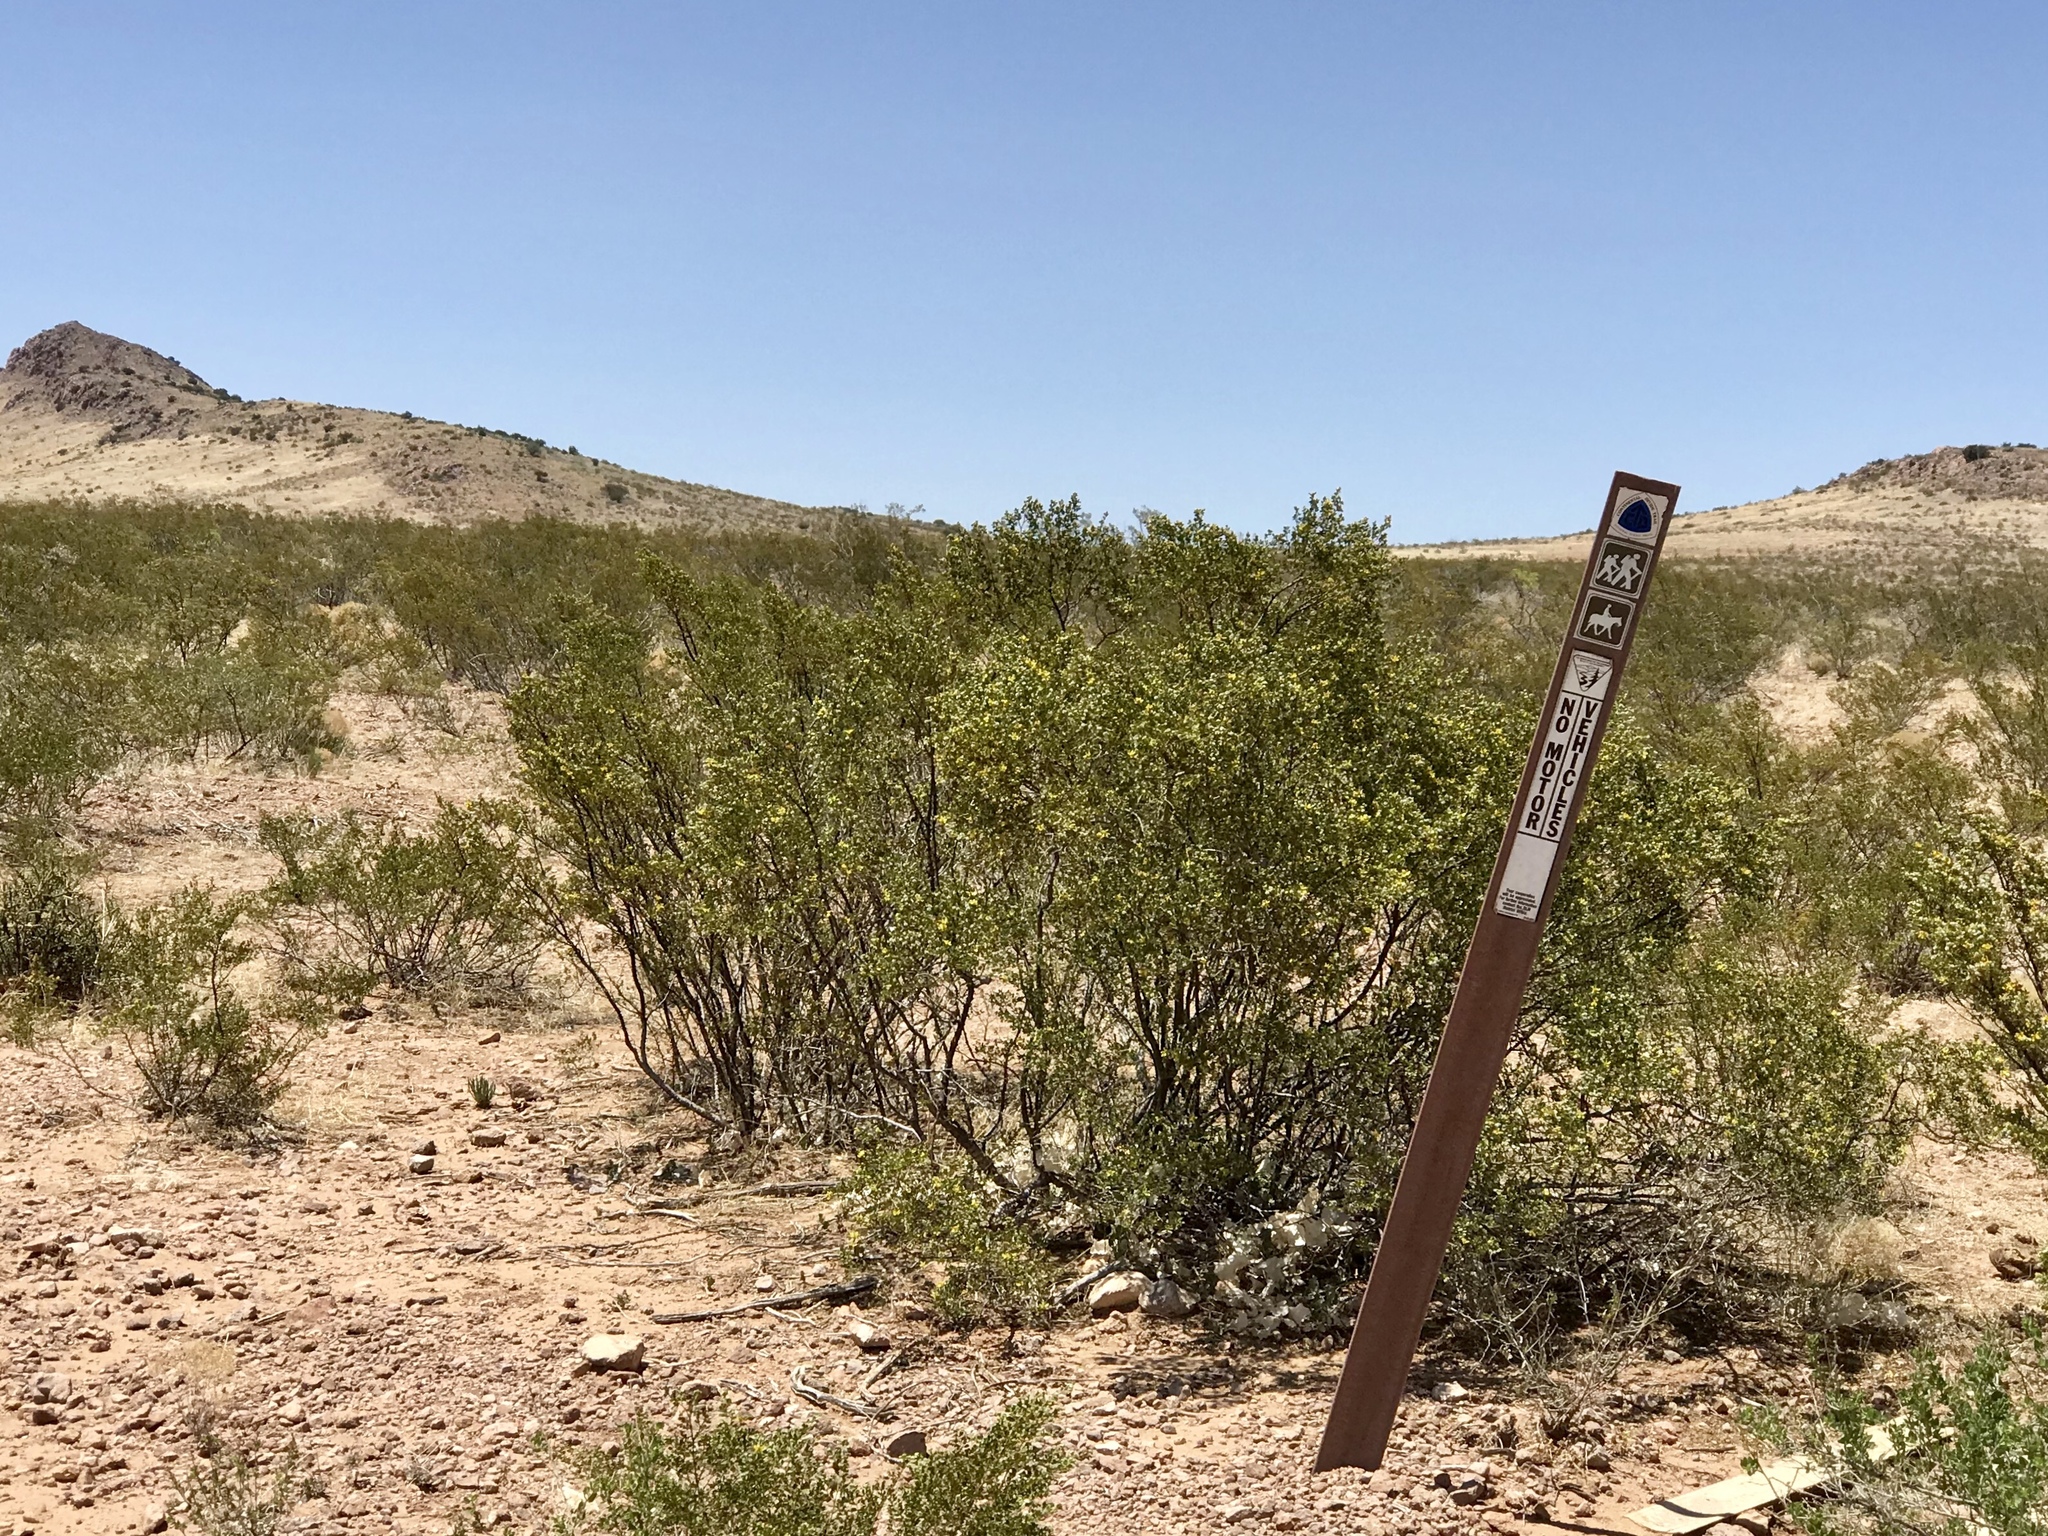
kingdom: Plantae
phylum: Tracheophyta
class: Magnoliopsida
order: Zygophyllales
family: Zygophyllaceae
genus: Larrea
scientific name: Larrea tridentata
